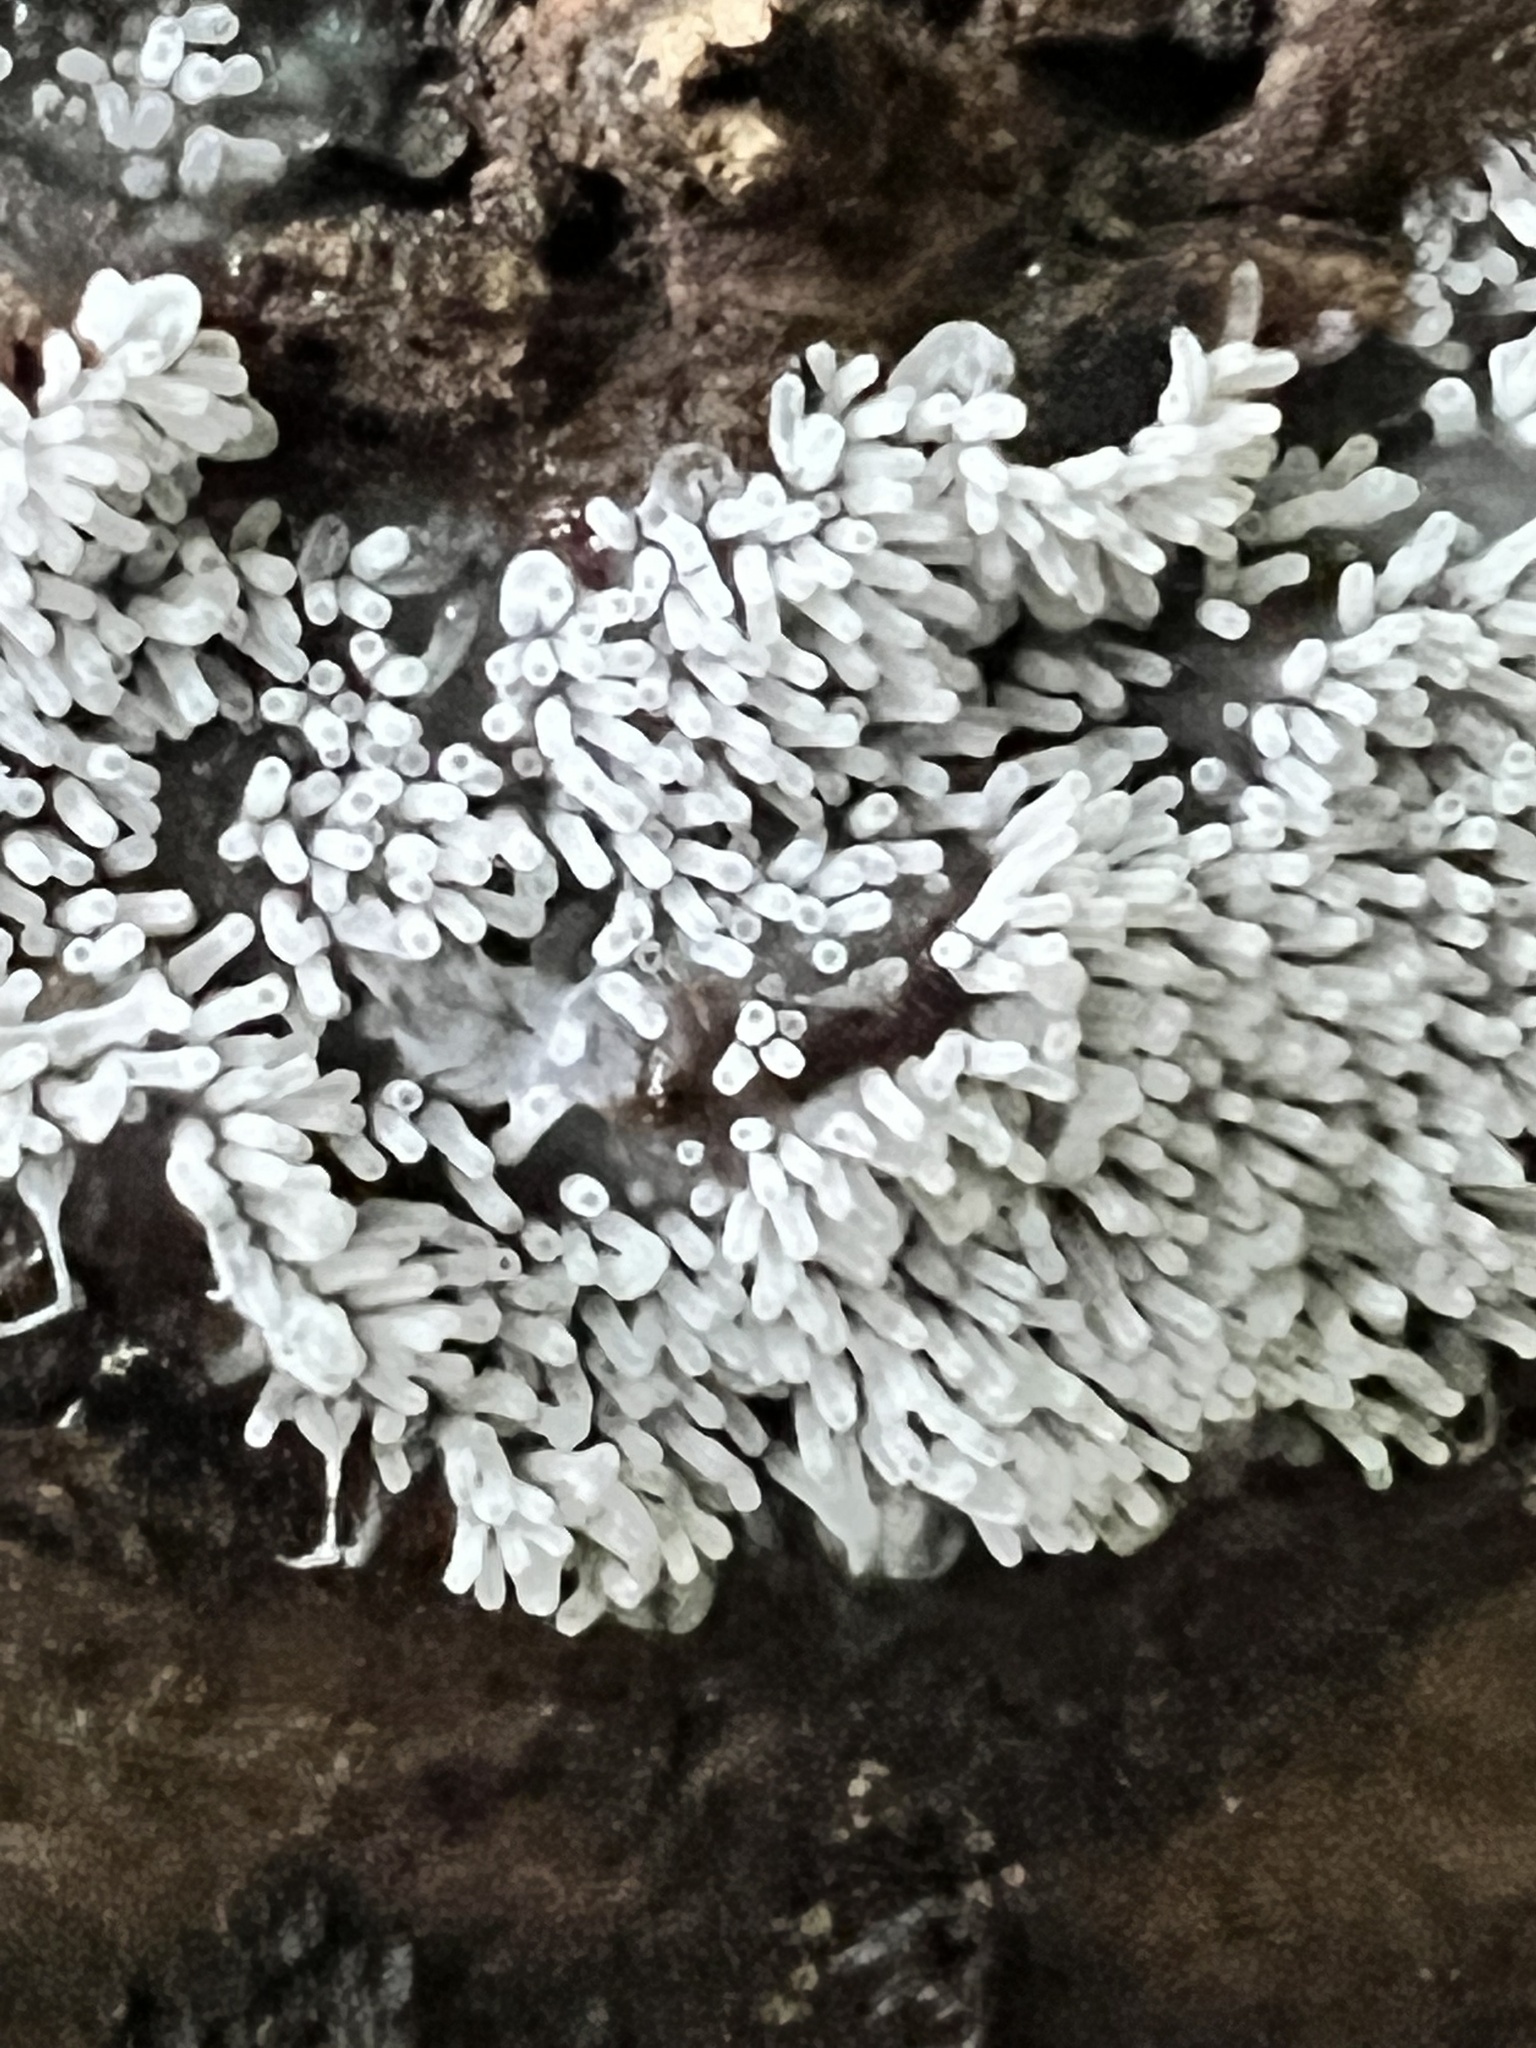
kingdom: Protozoa
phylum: Mycetozoa
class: Protosteliomycetes
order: Ceratiomyxales
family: Ceratiomyxaceae
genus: Ceratiomyxa
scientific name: Ceratiomyxa fruticulosa
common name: Honeycomb coral slime mold
